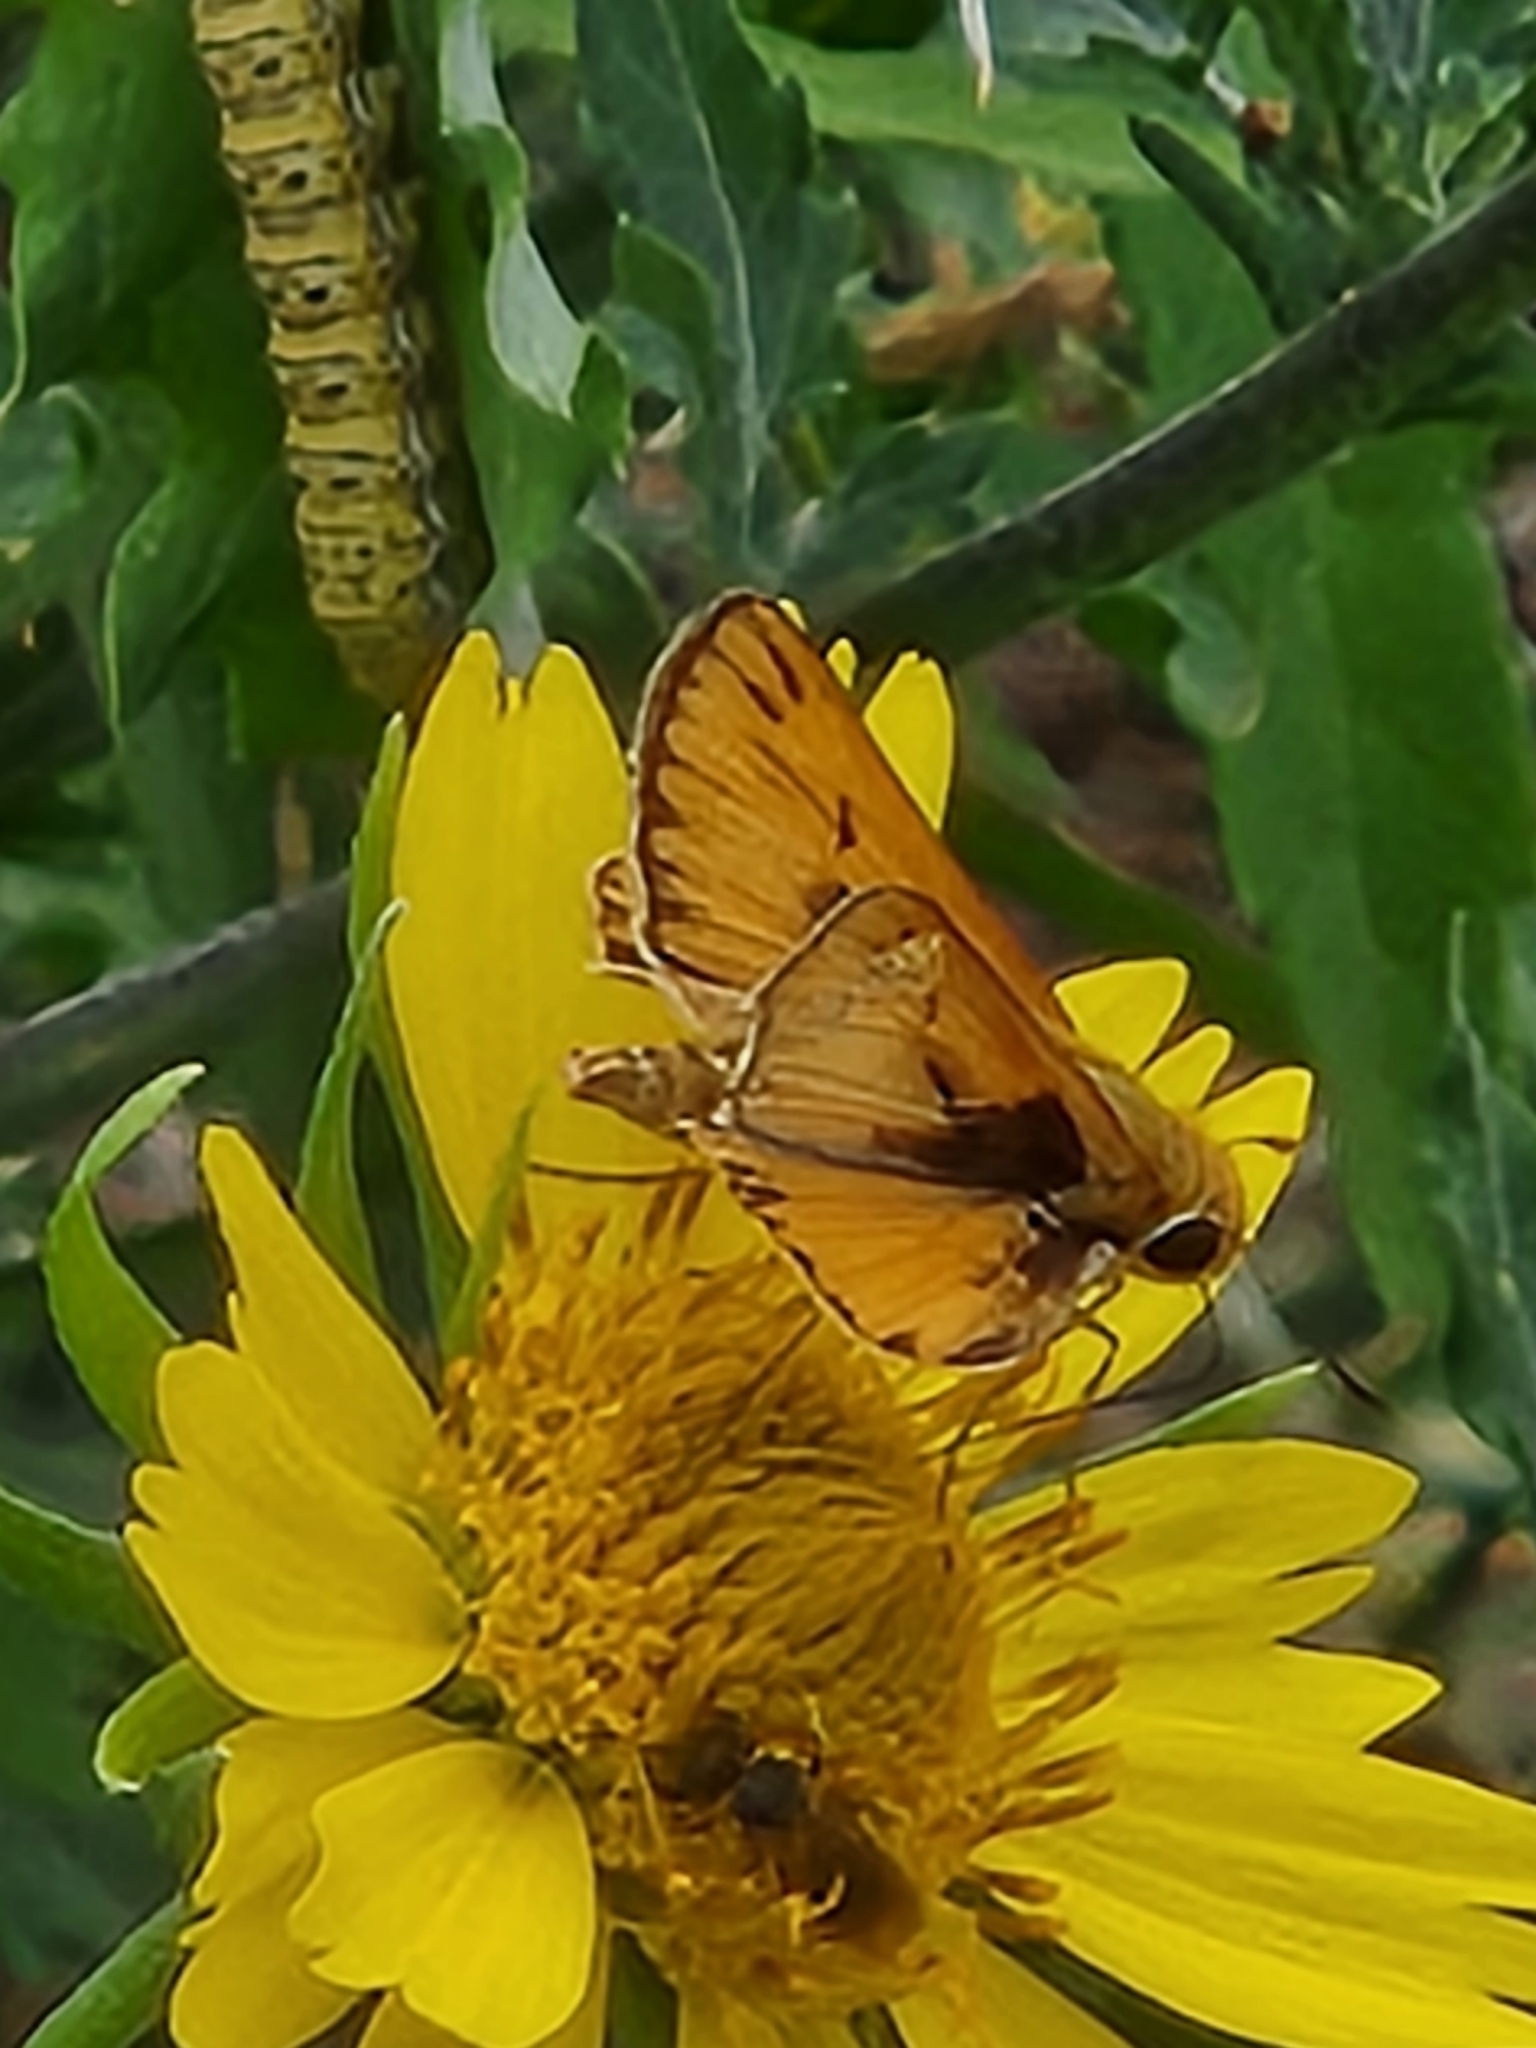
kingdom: Animalia
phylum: Arthropoda
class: Insecta
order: Lepidoptera
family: Hesperiidae
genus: Hylephila
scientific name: Hylephila phyleus
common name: Fiery skipper
